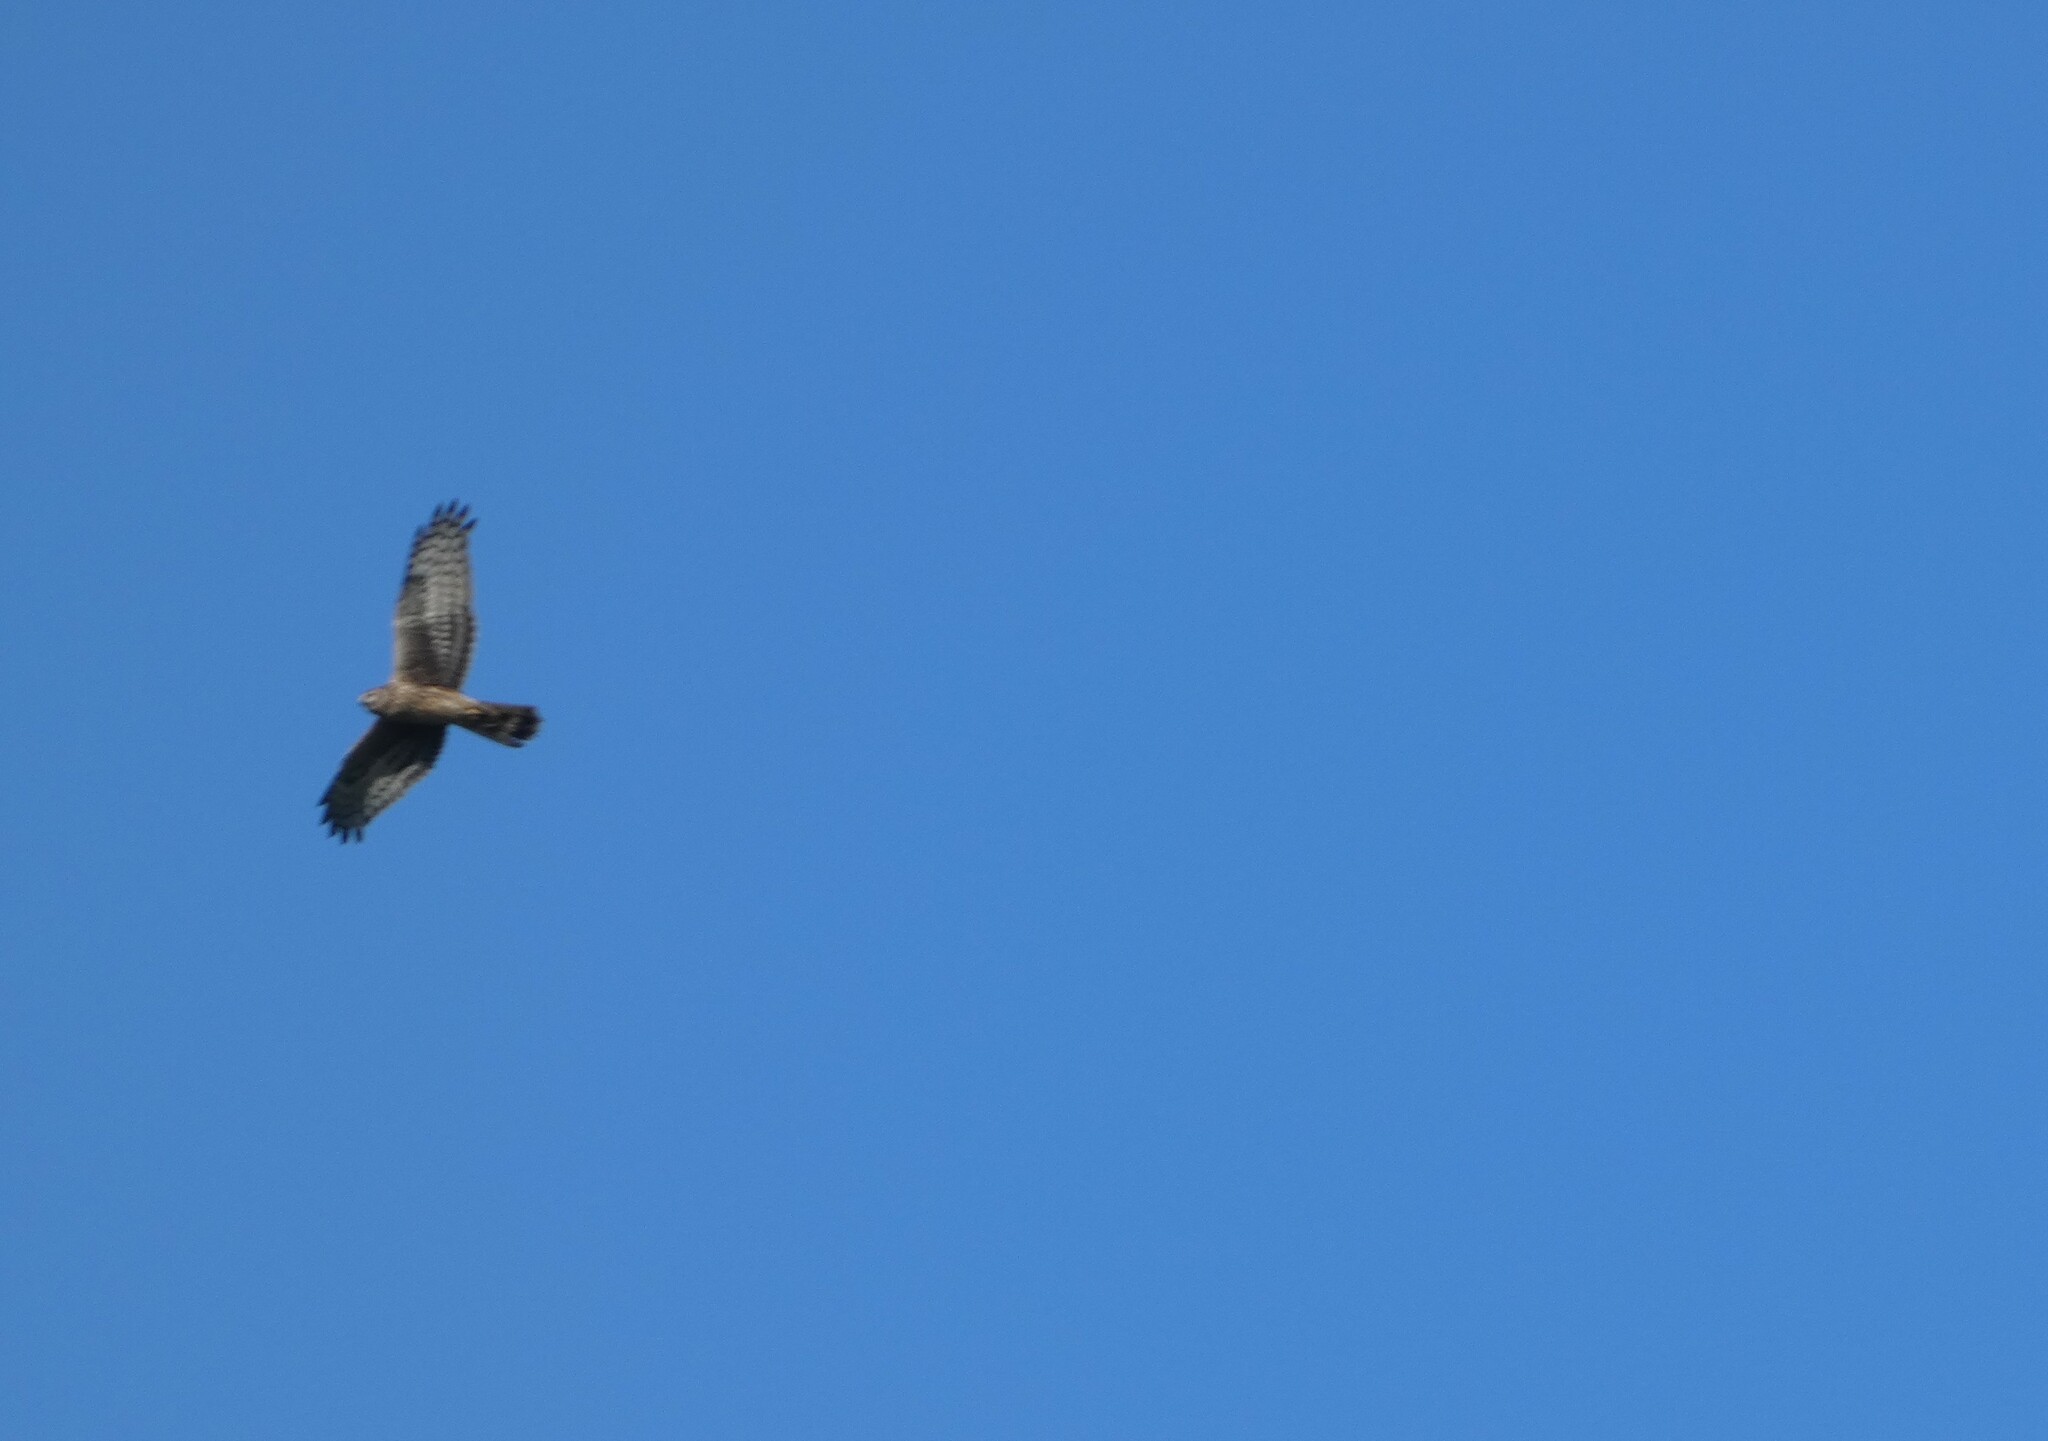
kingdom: Animalia
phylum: Chordata
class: Aves
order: Accipitriformes
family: Accipitridae
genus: Circus
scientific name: Circus cyaneus
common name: Hen harrier
